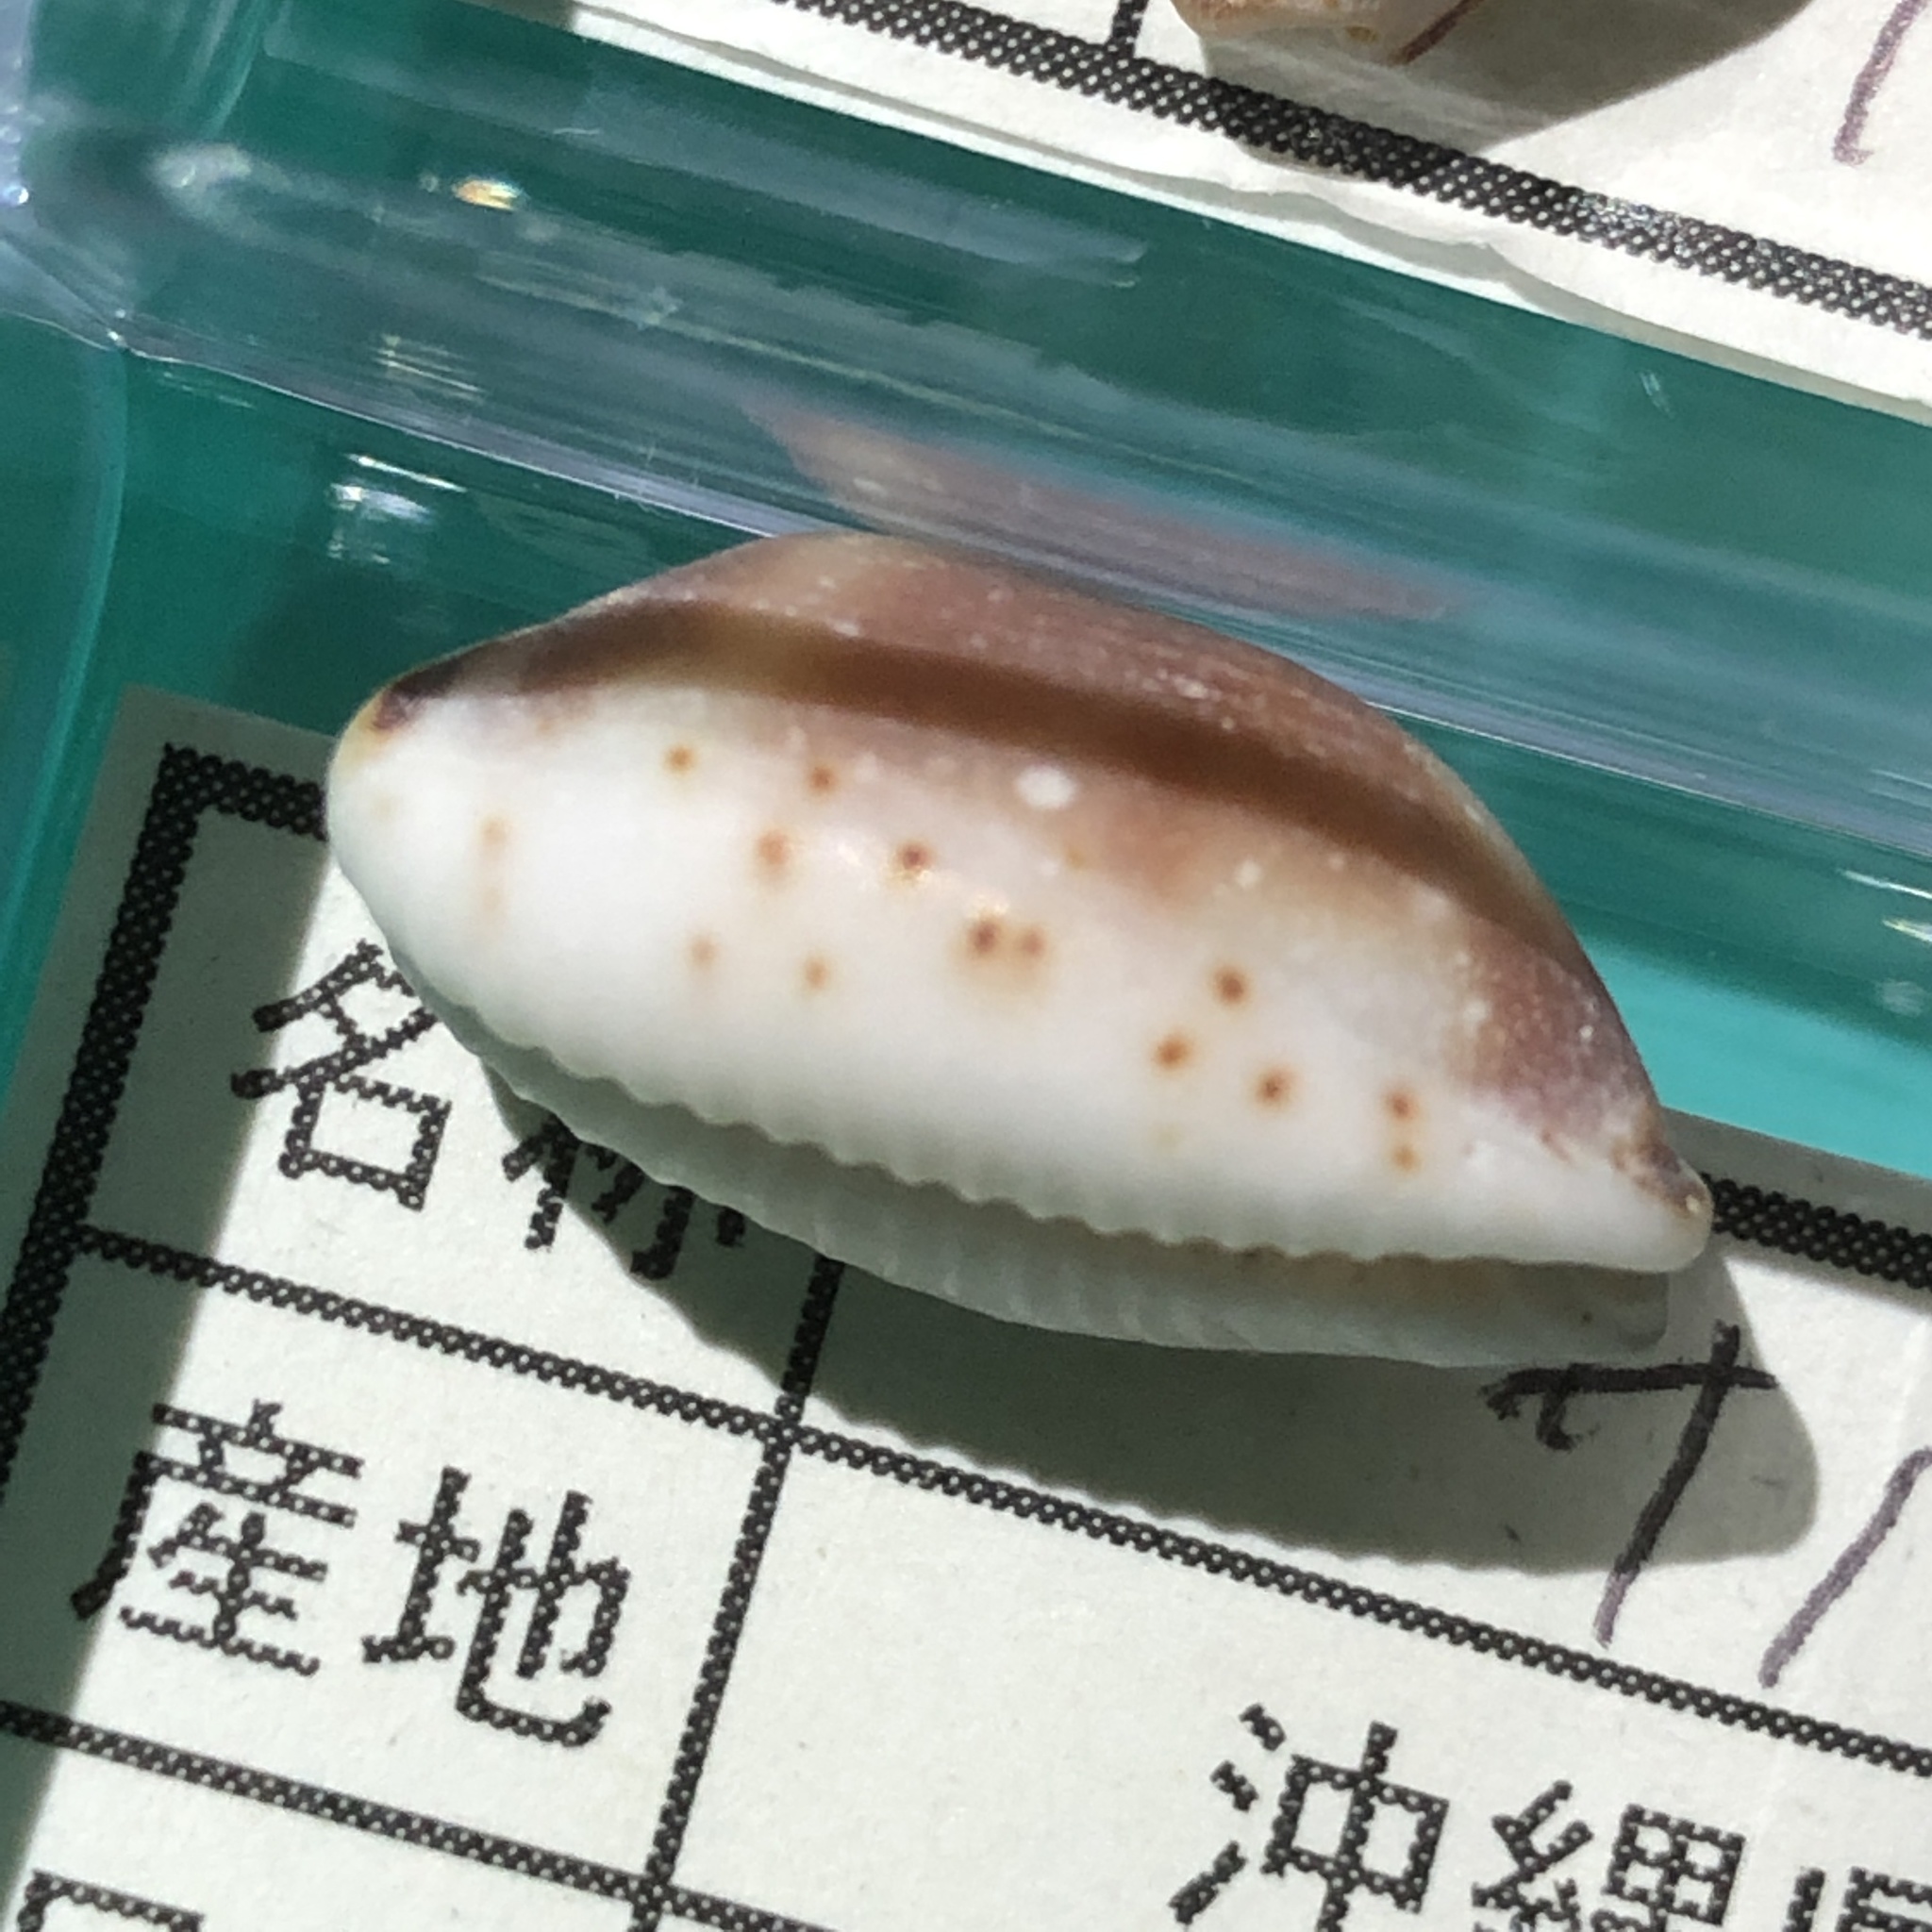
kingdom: Animalia
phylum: Mollusca
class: Gastropoda
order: Littorinimorpha
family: Cypraeidae
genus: Bistolida
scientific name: Bistolida hirundo
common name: Cowrie
